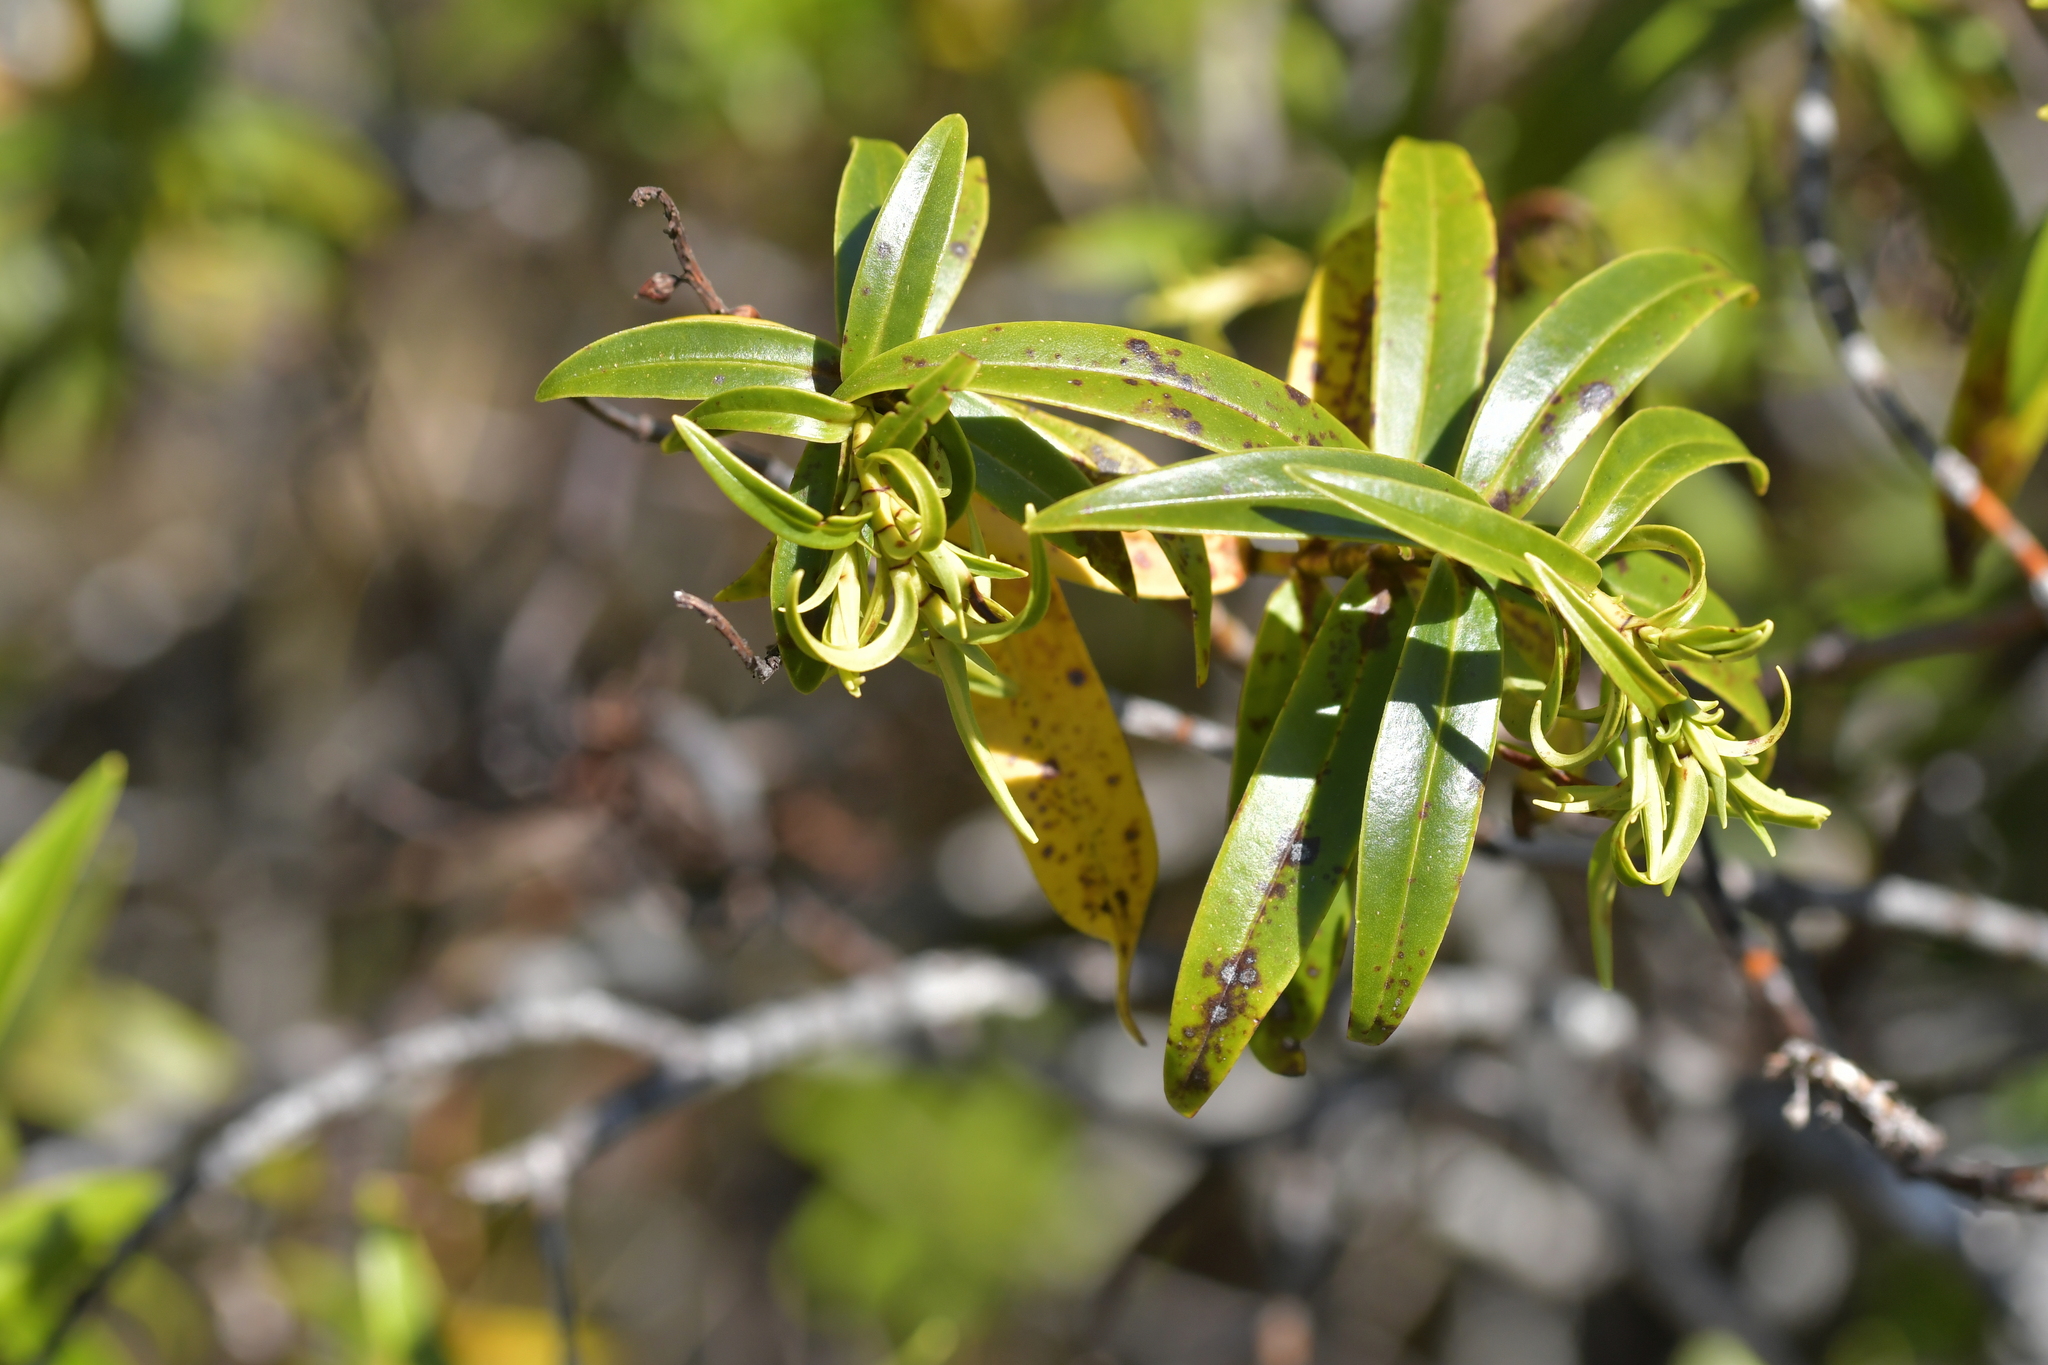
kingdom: Plantae
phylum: Tracheophyta
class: Magnoliopsida
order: Lamiales
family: Plantaginaceae
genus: Veronica
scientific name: Veronica stricta
